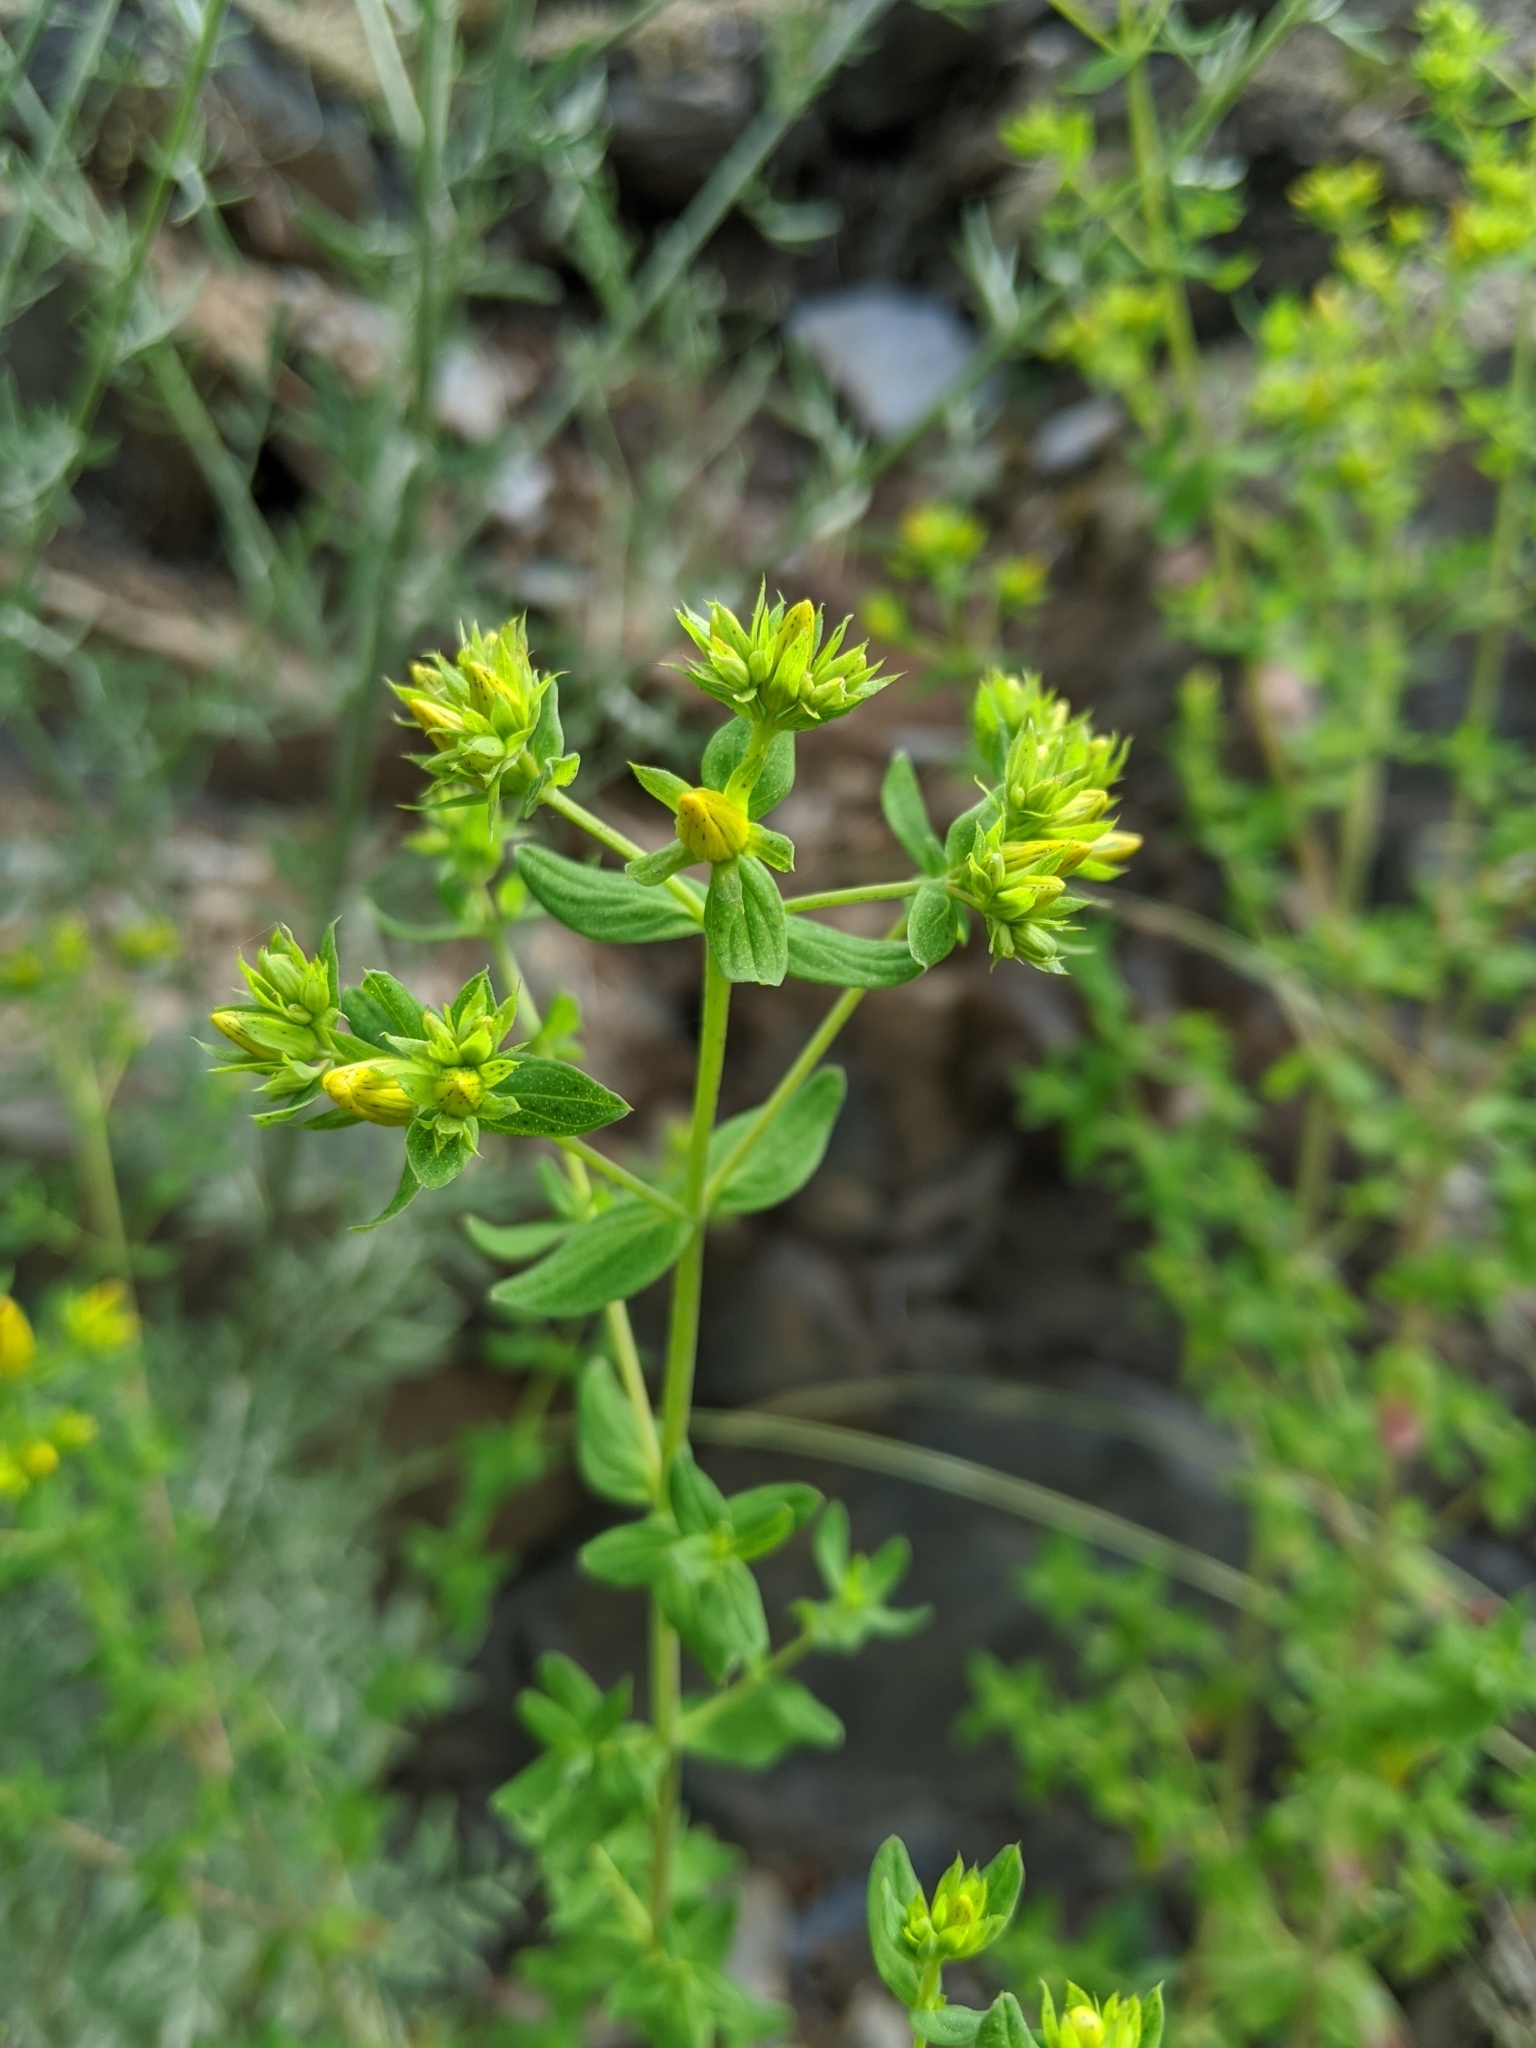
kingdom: Plantae
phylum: Tracheophyta
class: Magnoliopsida
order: Malpighiales
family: Hypericaceae
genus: Hypericum
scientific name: Hypericum perforatum
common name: Common st. johnswort
